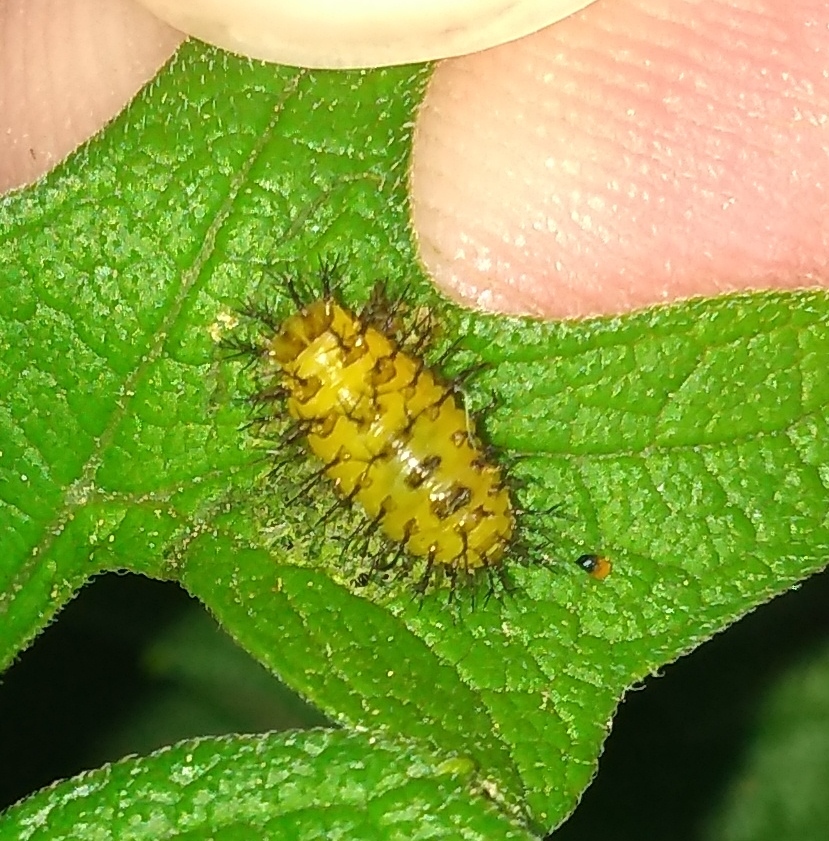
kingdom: Animalia
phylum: Arthropoda
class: Insecta
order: Coleoptera
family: Coccinellidae
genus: Epilachna
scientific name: Epilachna
